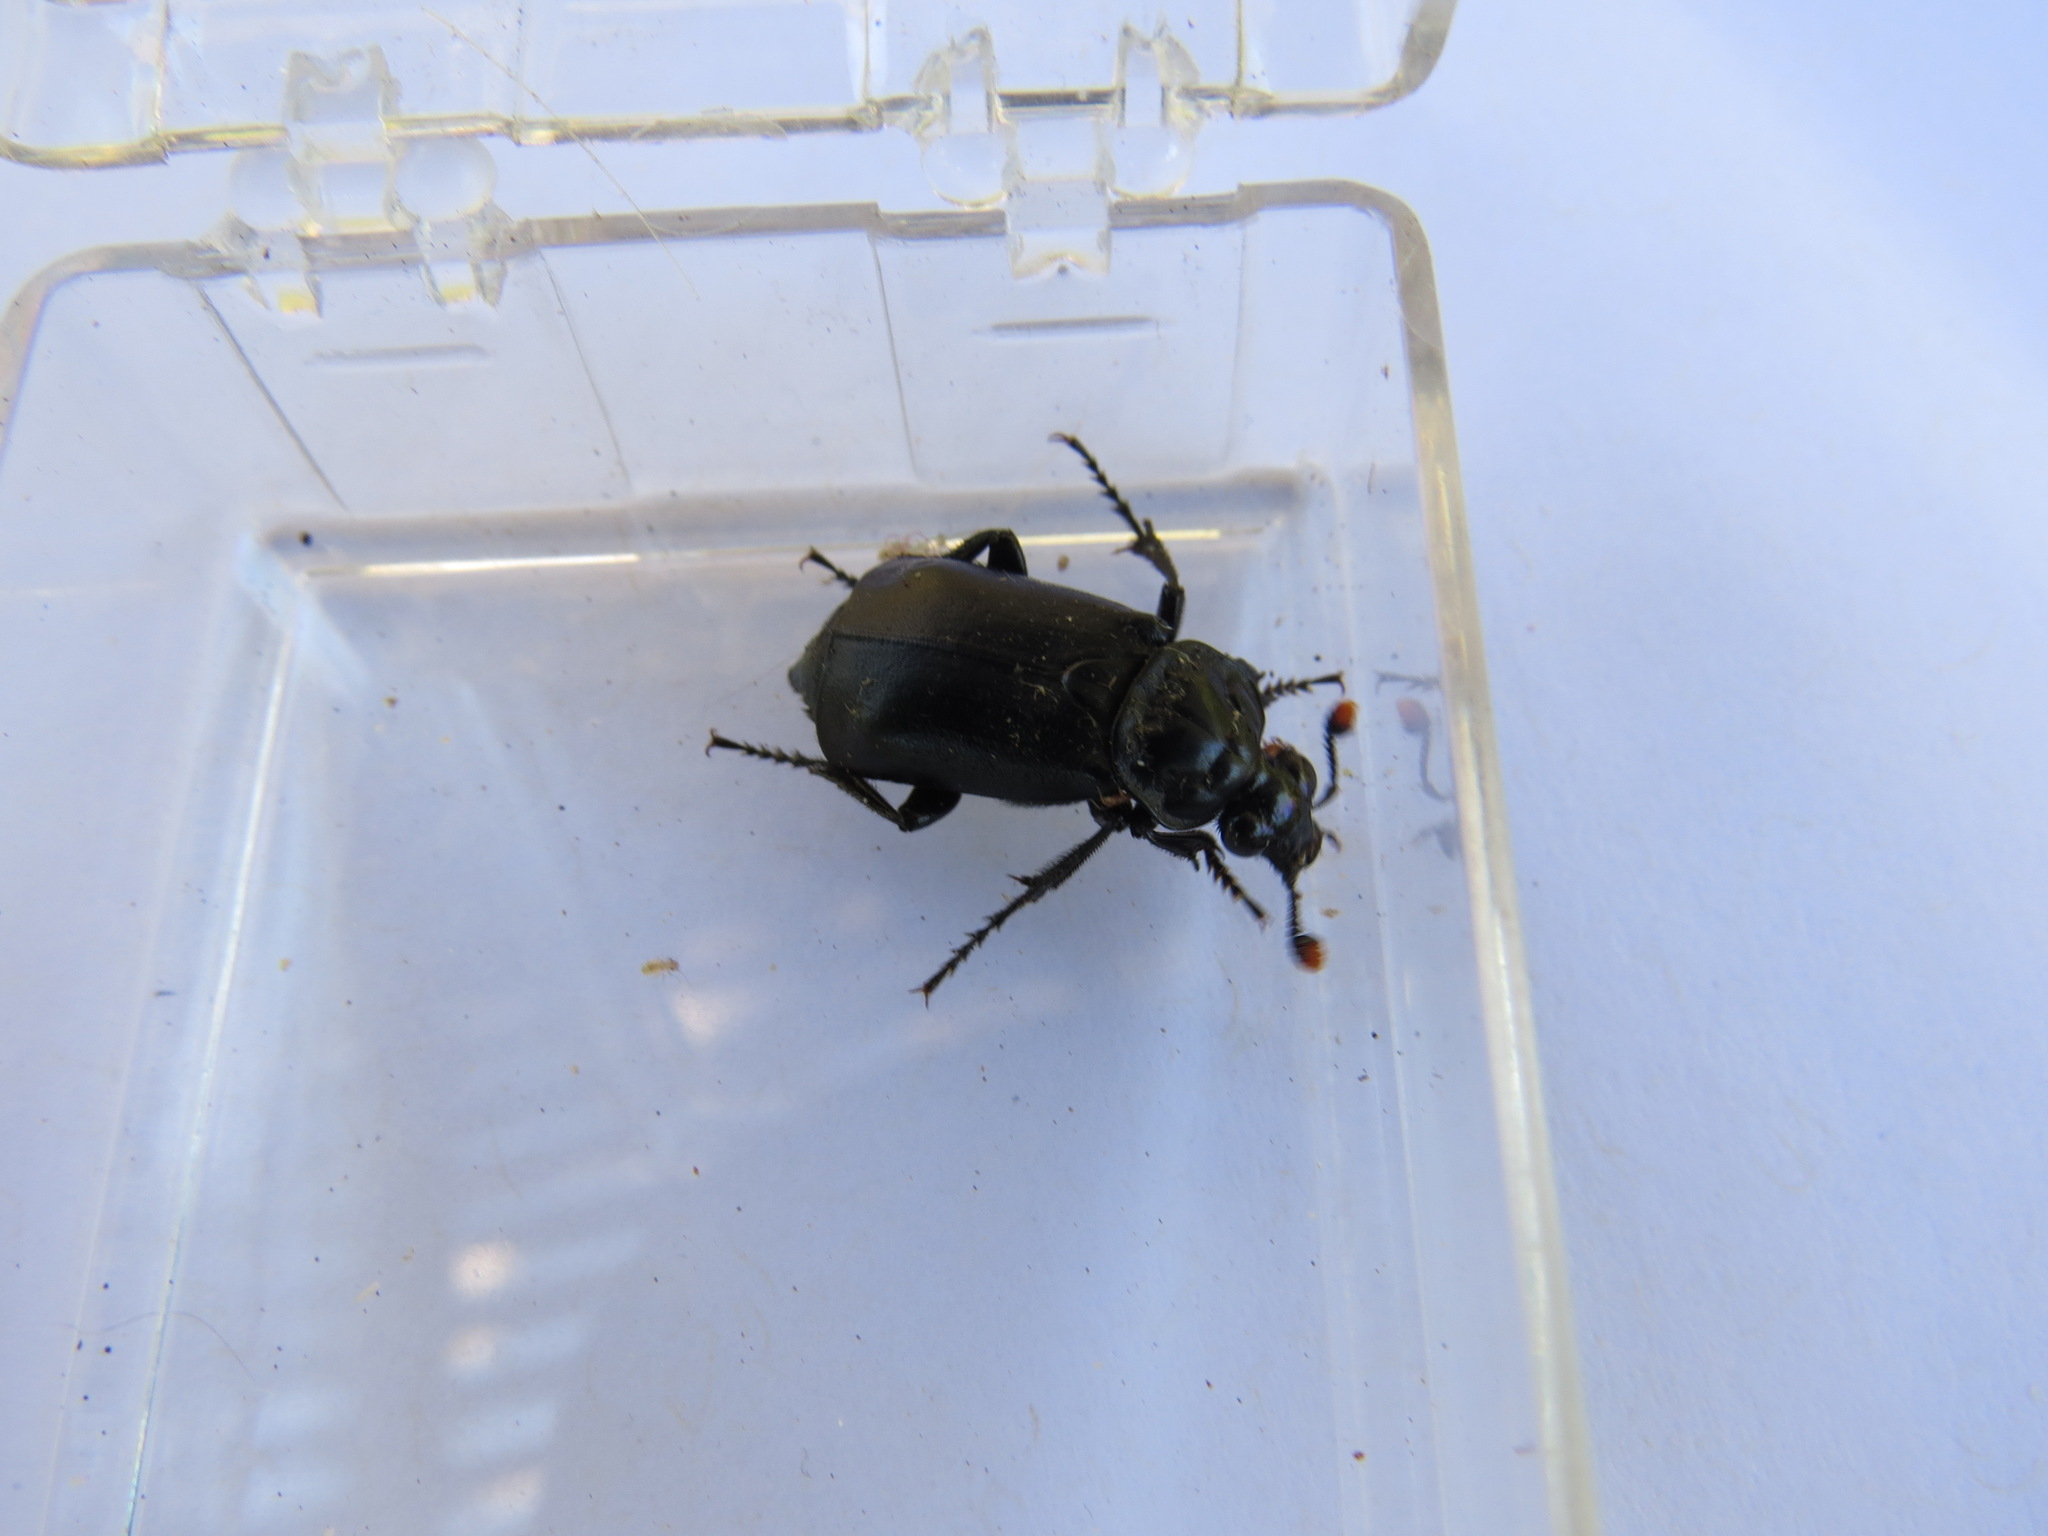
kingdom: Animalia
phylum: Arthropoda
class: Insecta
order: Coleoptera
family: Staphylinidae
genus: Nicrophorus
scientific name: Nicrophorus nigrita
